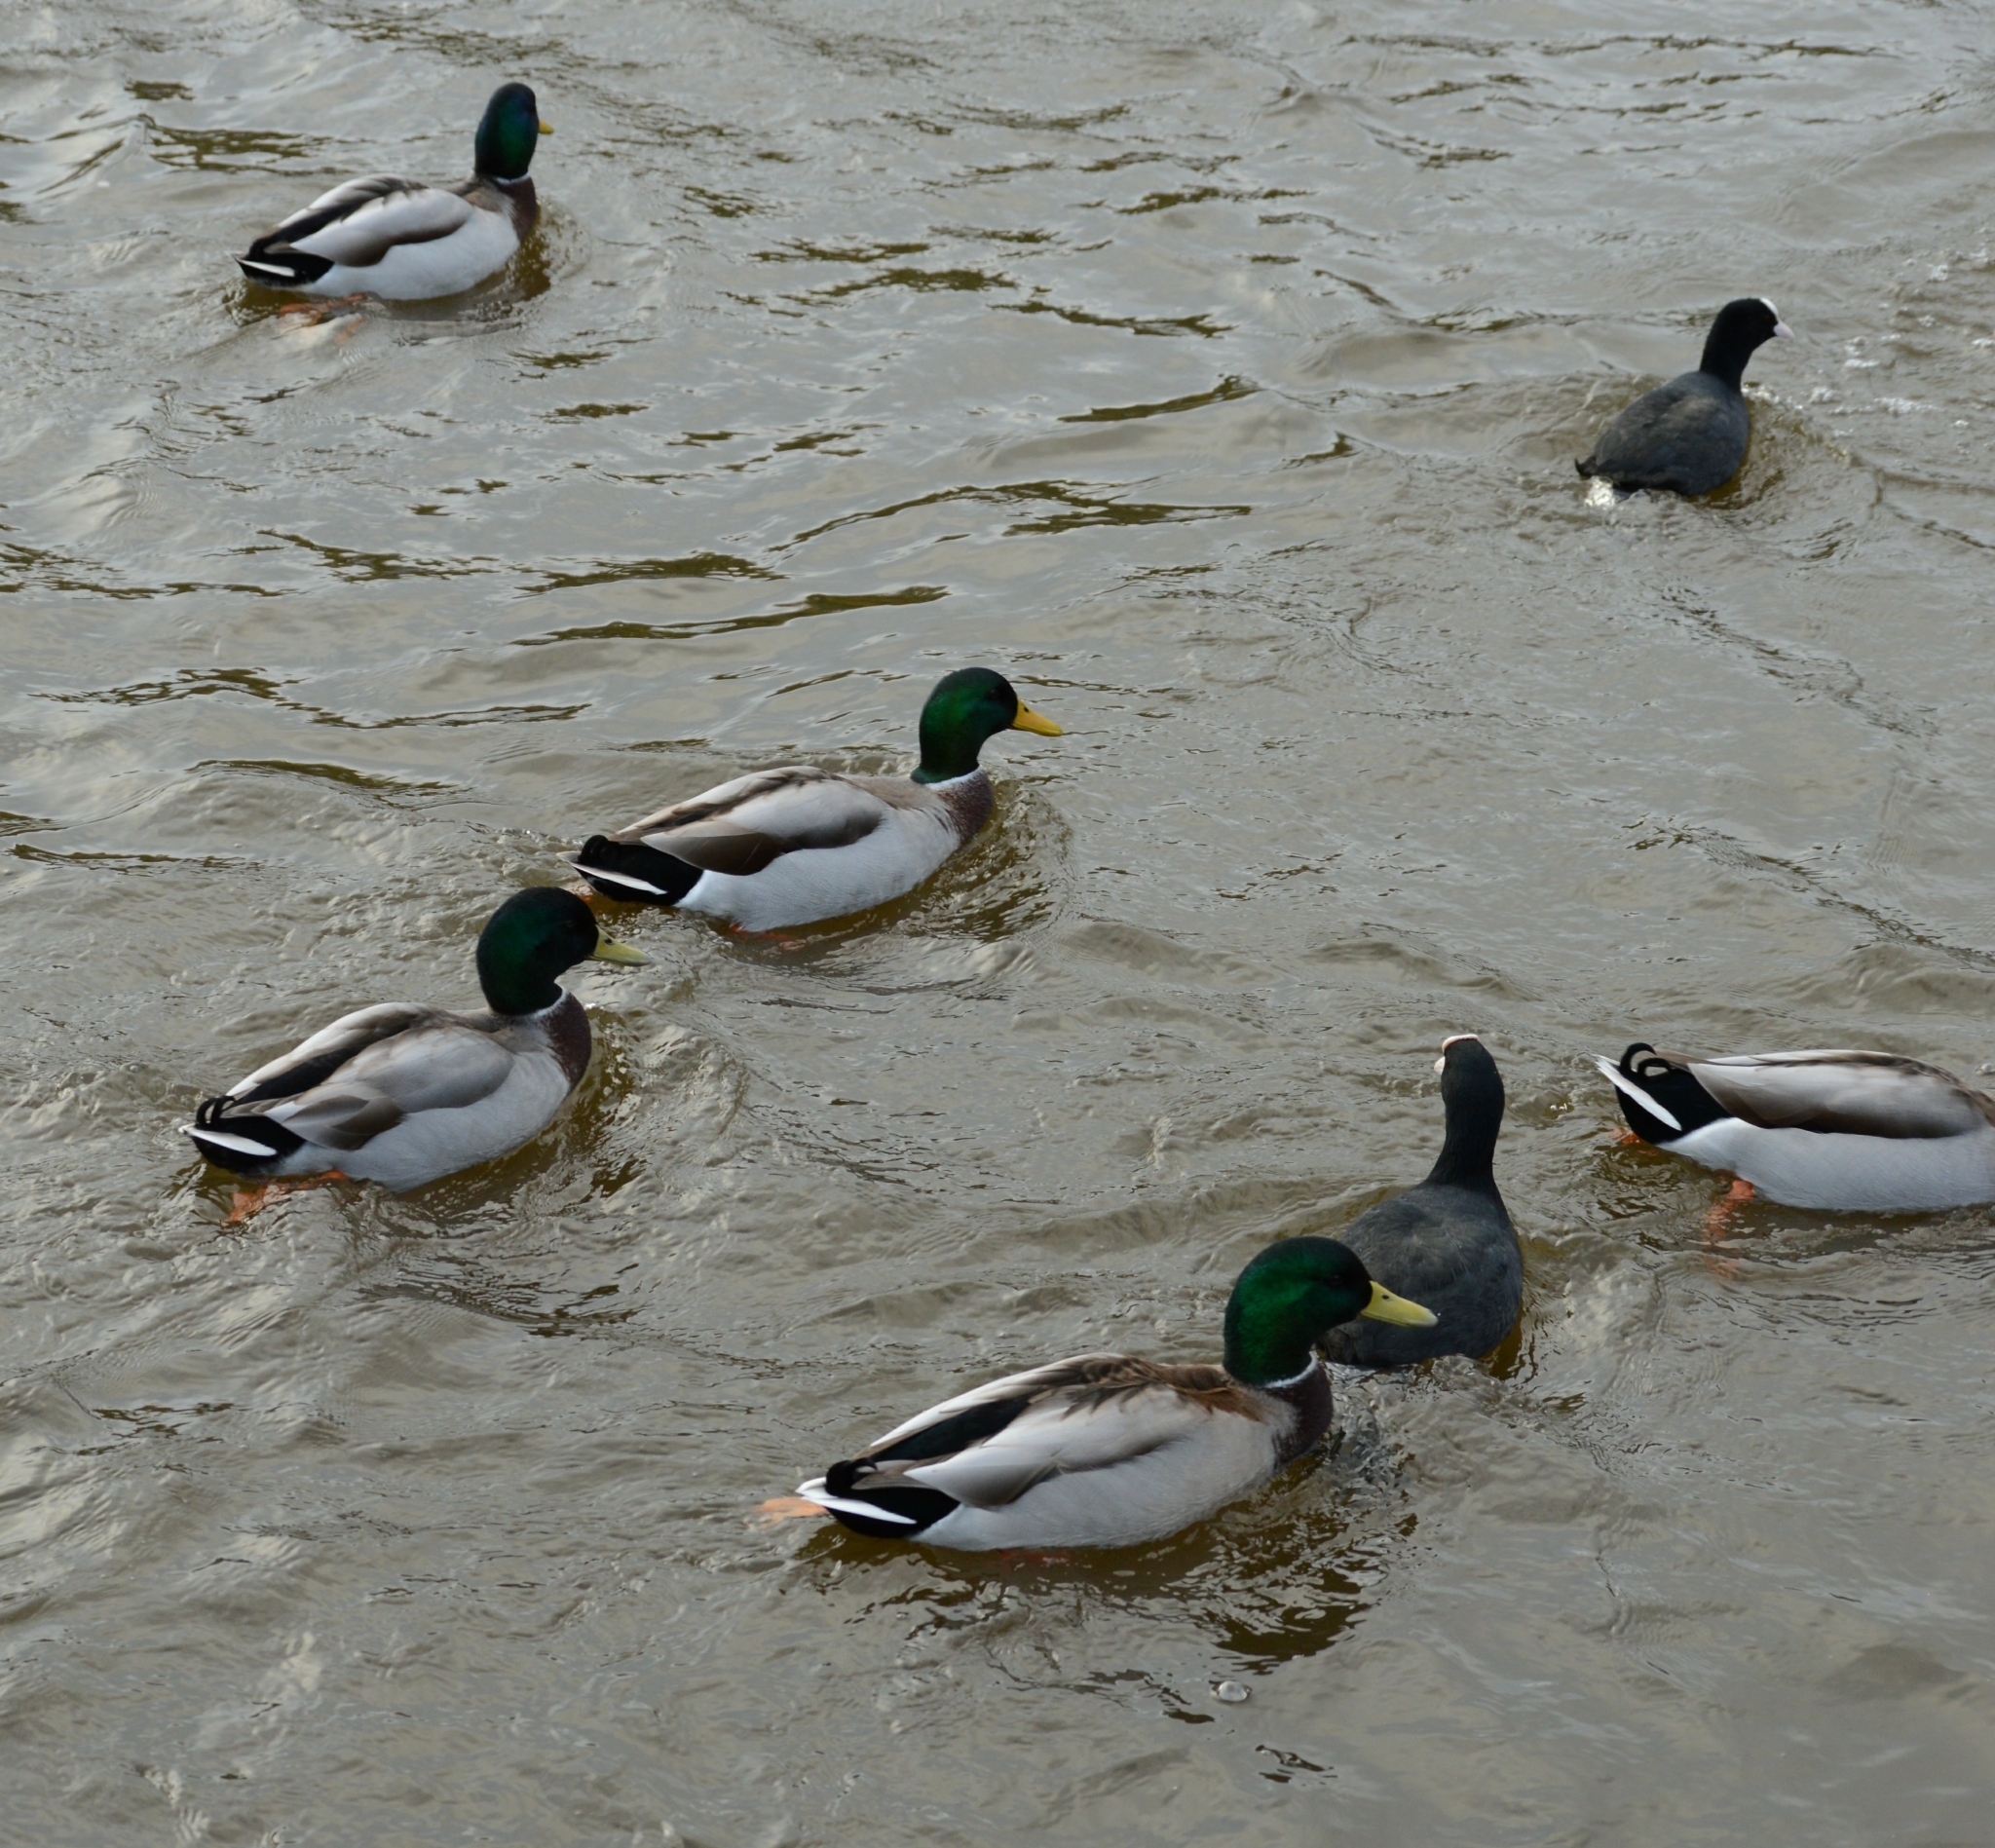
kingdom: Animalia
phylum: Chordata
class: Aves
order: Anseriformes
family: Anatidae
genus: Anas
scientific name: Anas platyrhynchos
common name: Mallard
